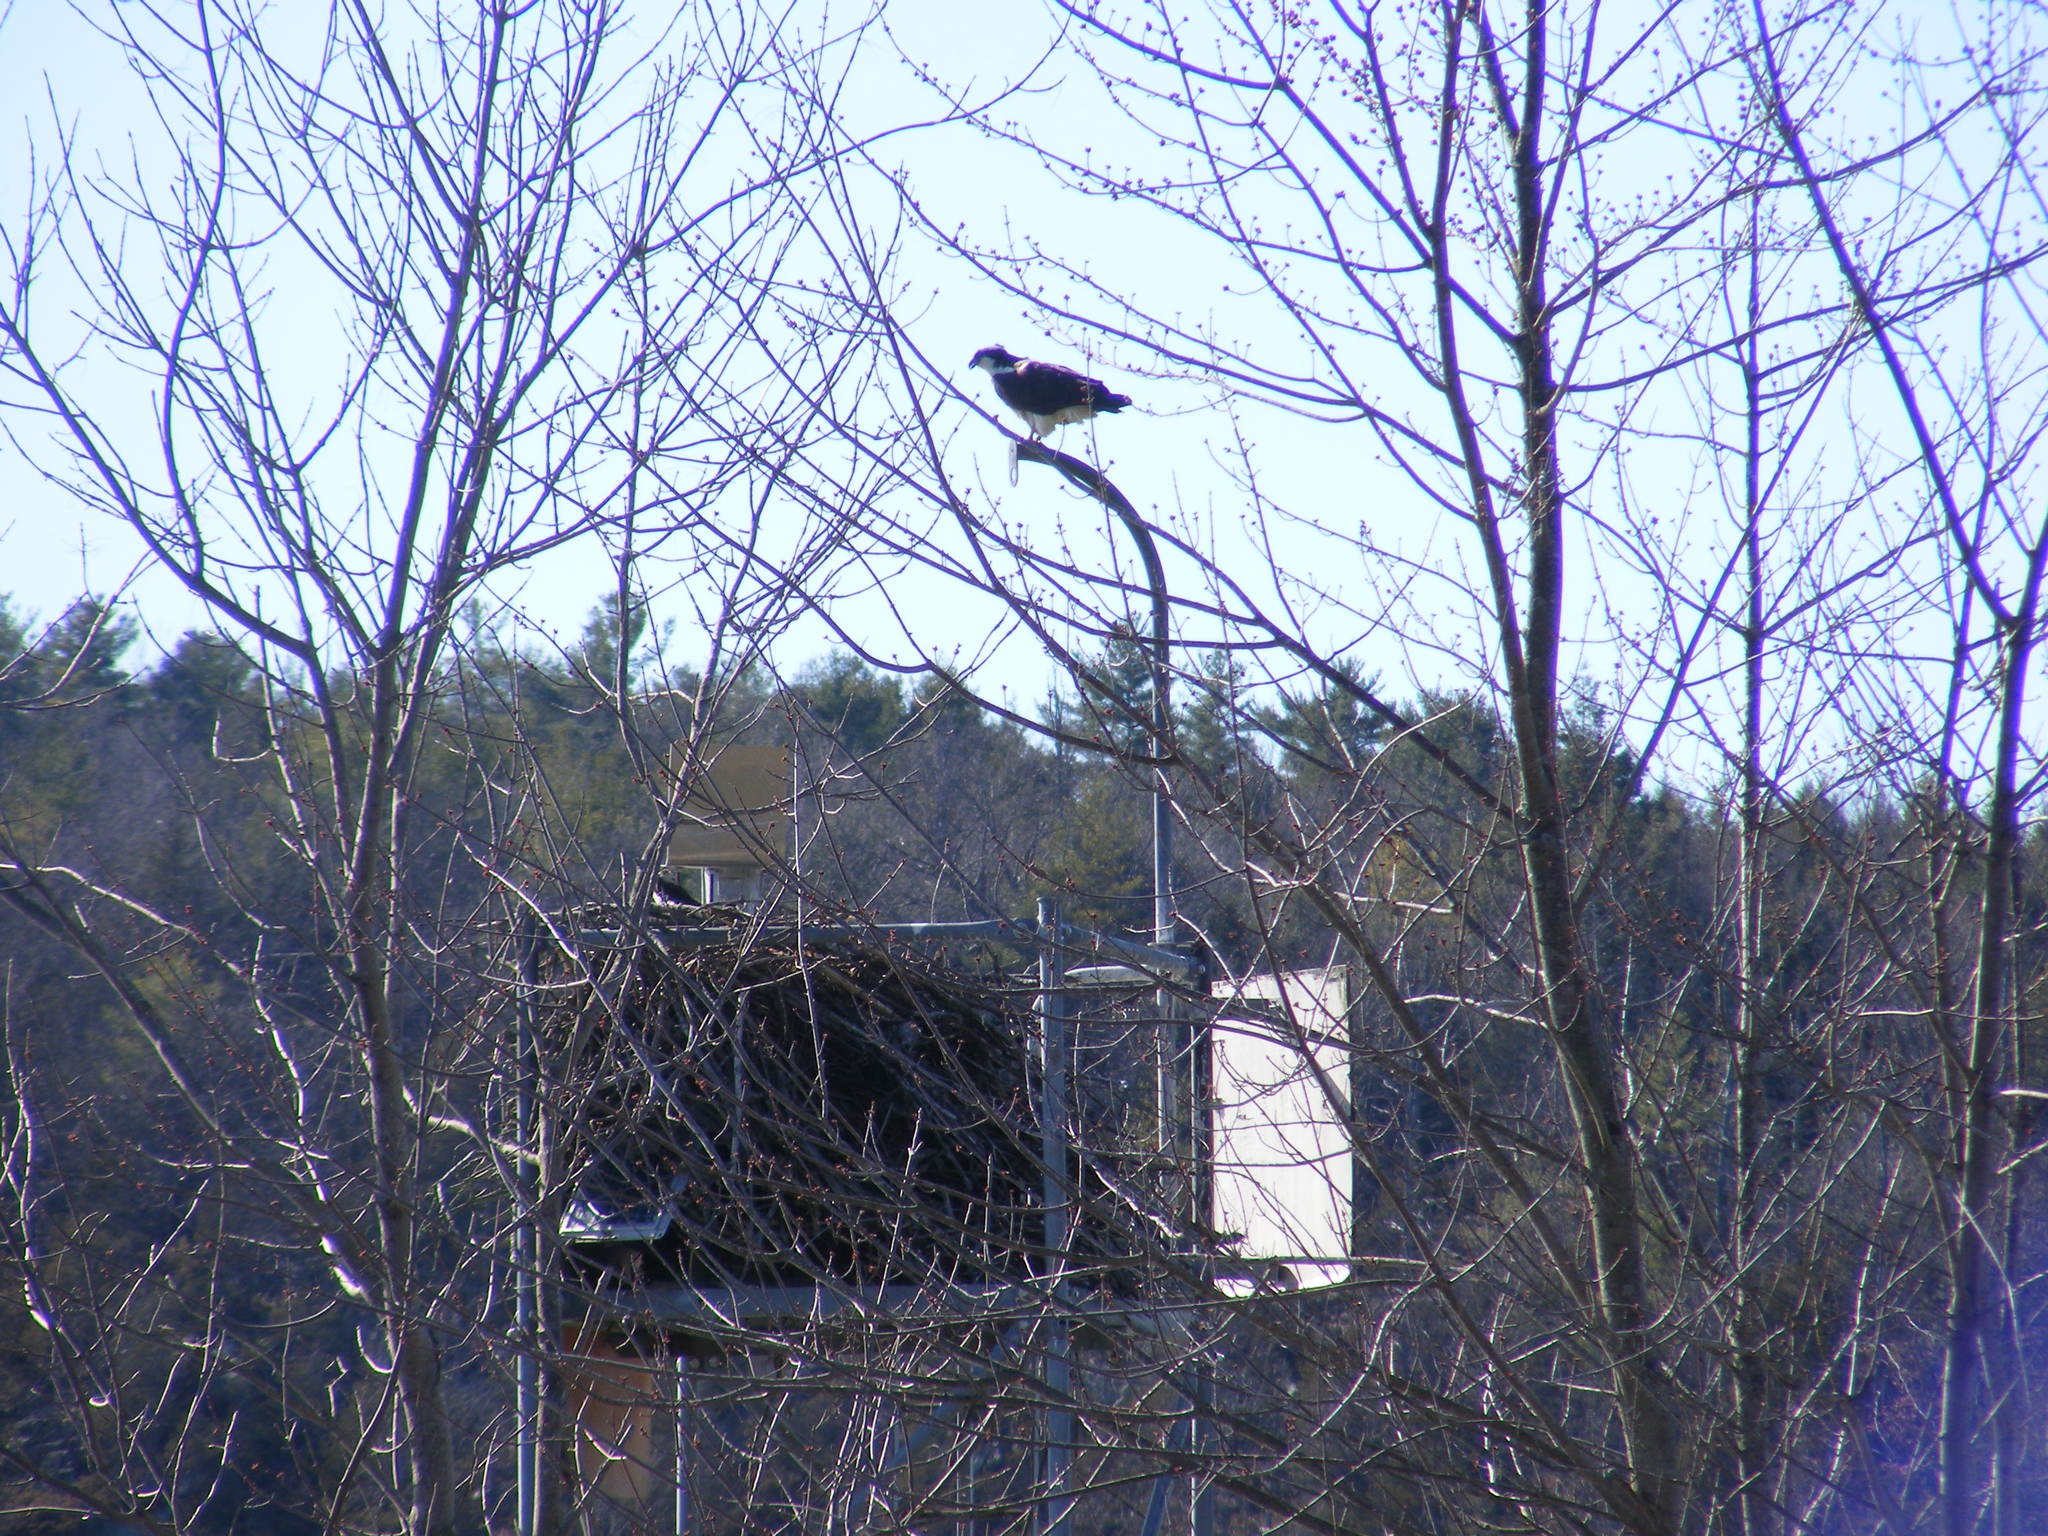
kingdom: Animalia
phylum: Chordata
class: Aves
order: Accipitriformes
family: Pandionidae
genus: Pandion
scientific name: Pandion haliaetus
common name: Osprey
